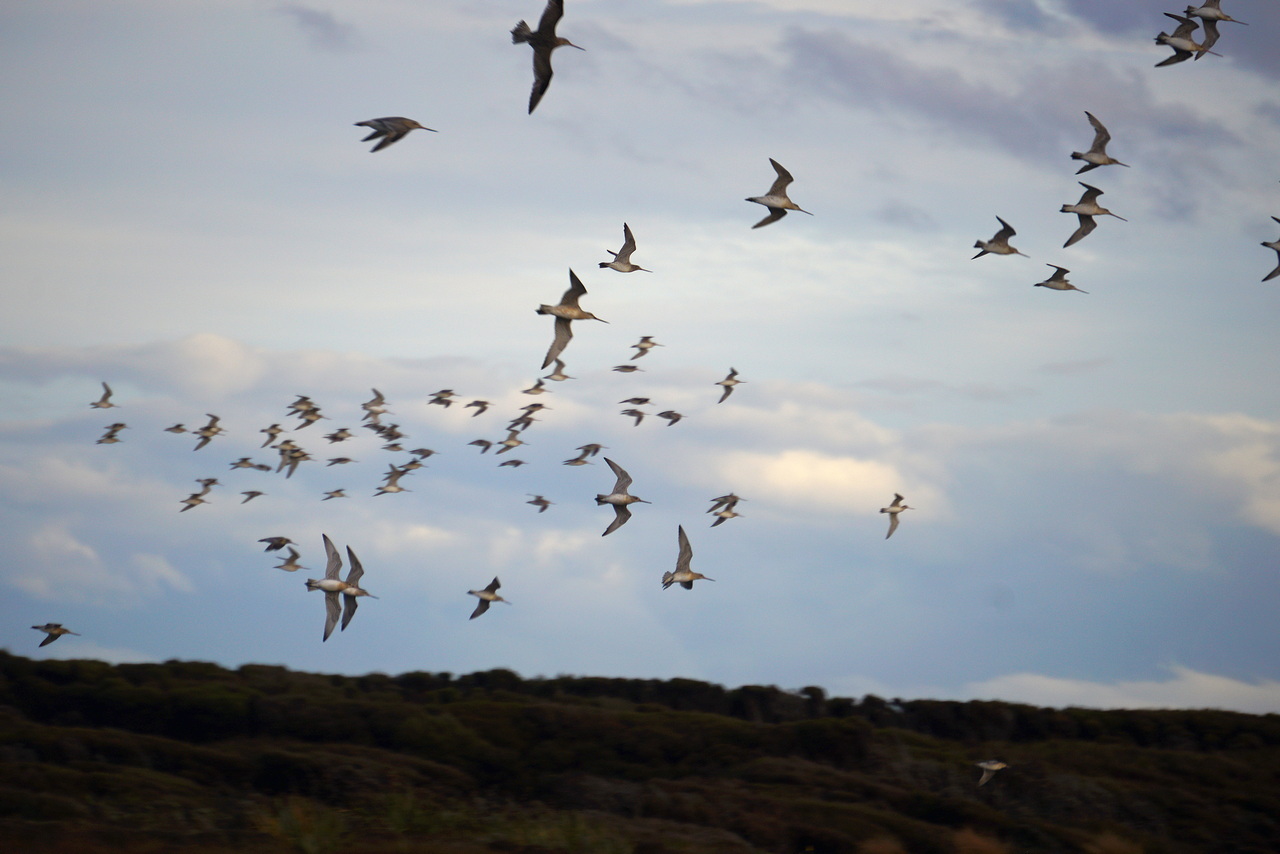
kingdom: Animalia
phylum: Chordata
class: Aves
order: Charadriiformes
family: Scolopacidae
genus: Limosa
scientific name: Limosa lapponica
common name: Bar-tailed godwit
